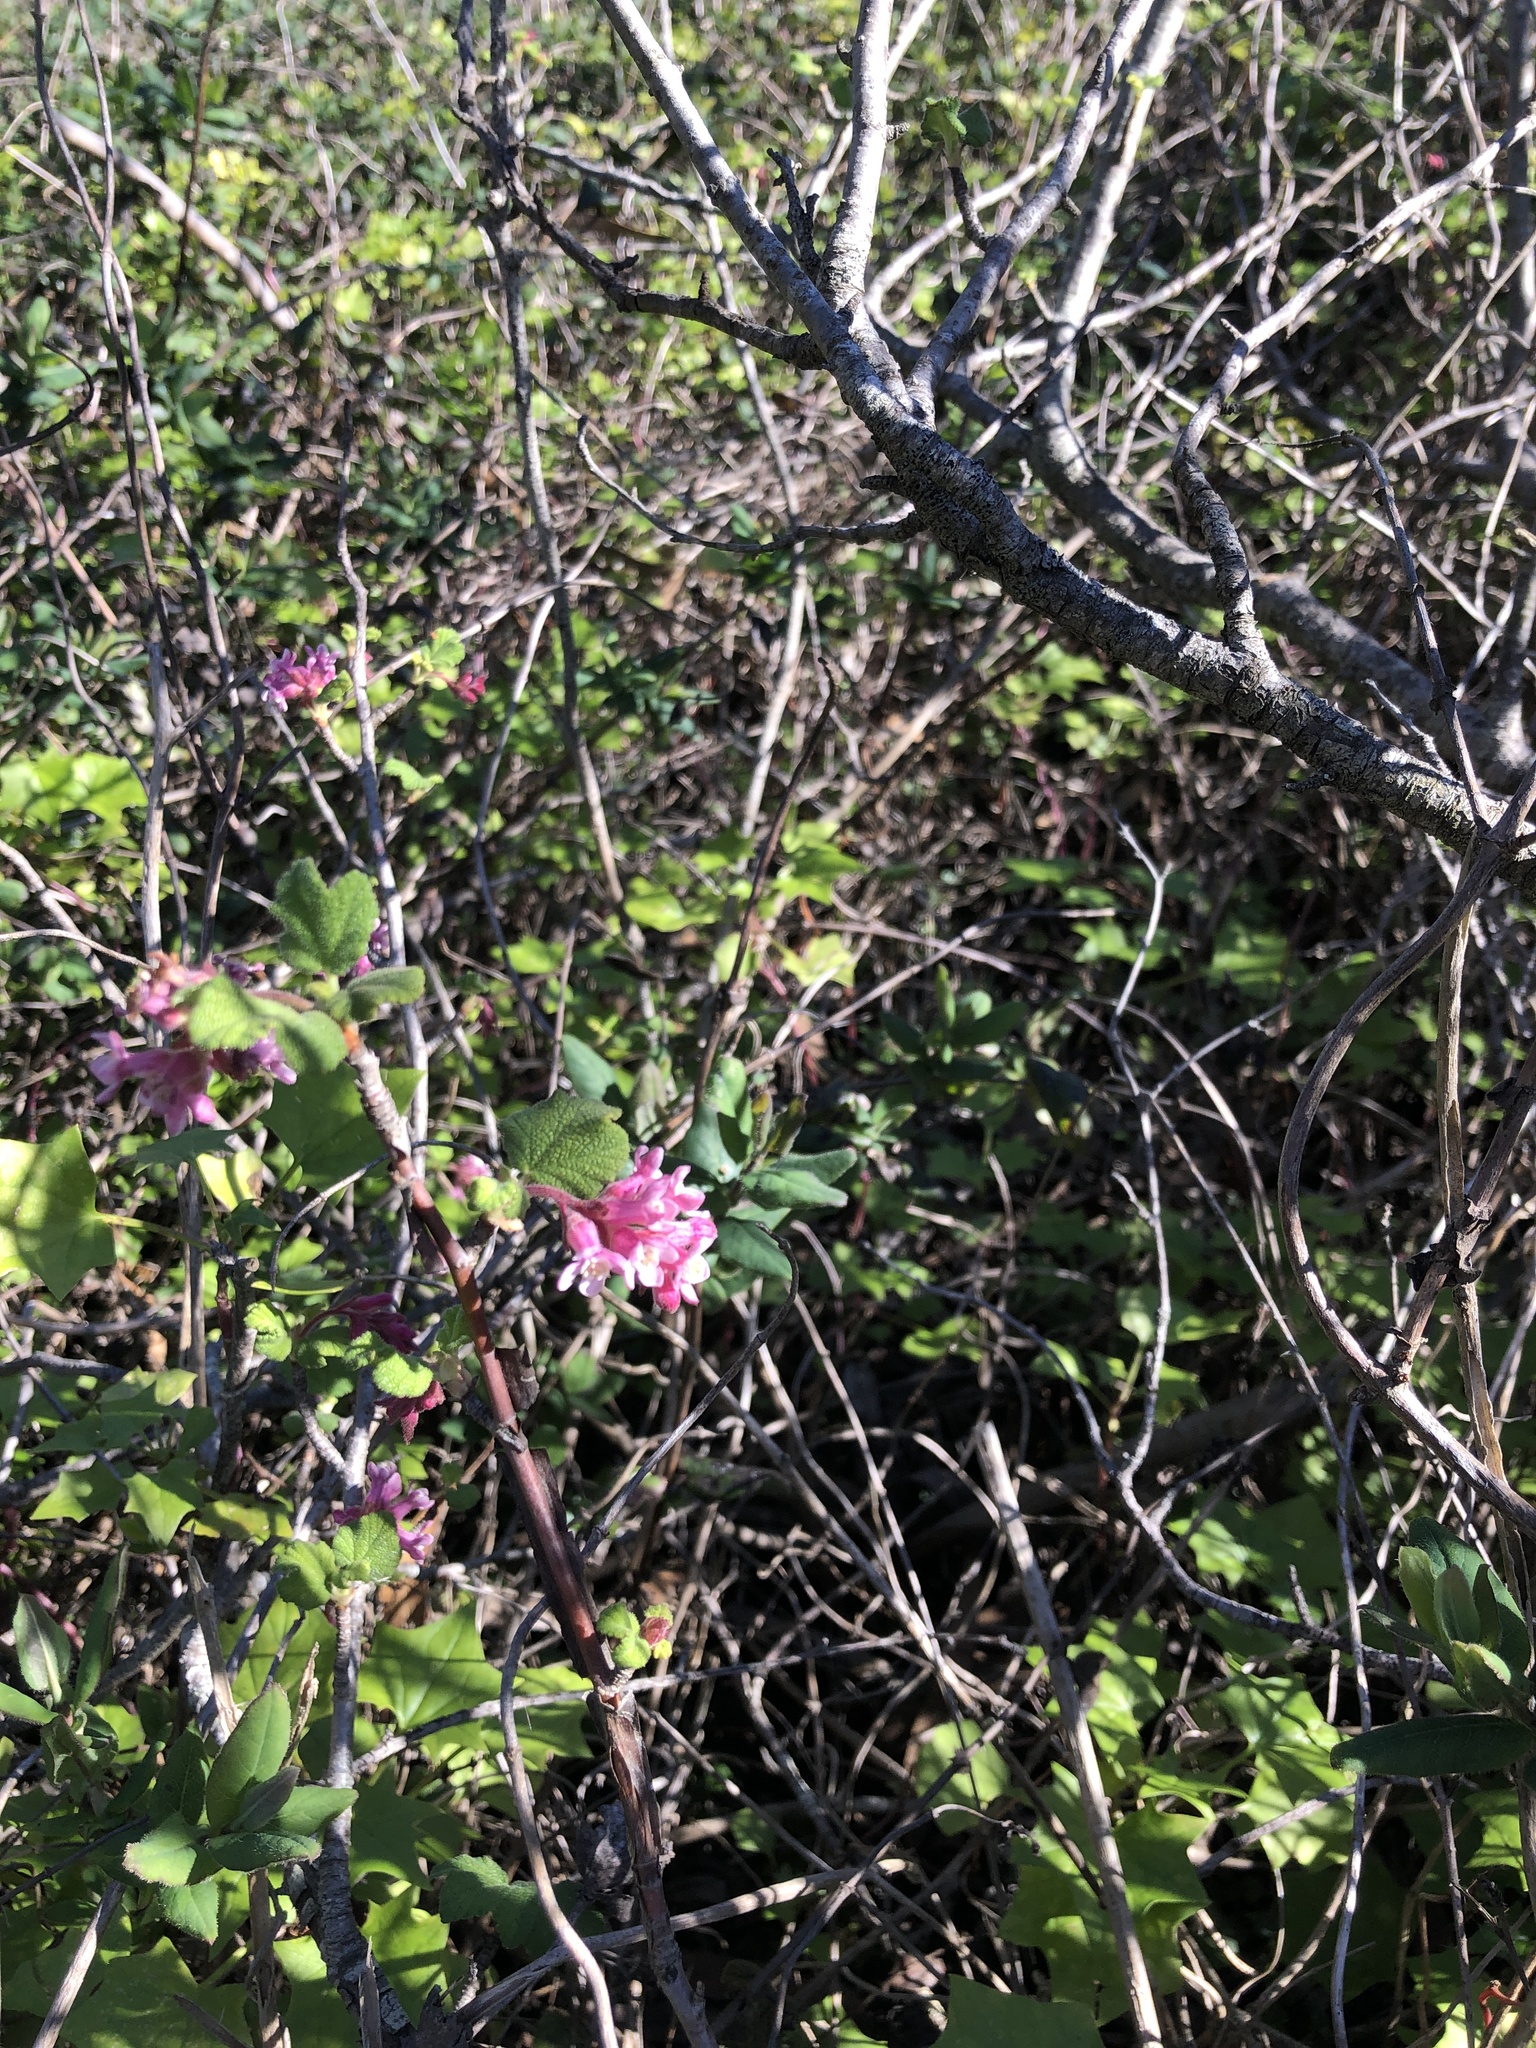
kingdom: Plantae
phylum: Tracheophyta
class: Magnoliopsida
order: Saxifragales
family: Grossulariaceae
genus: Ribes
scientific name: Ribes malvaceum
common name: Chaparral currant
